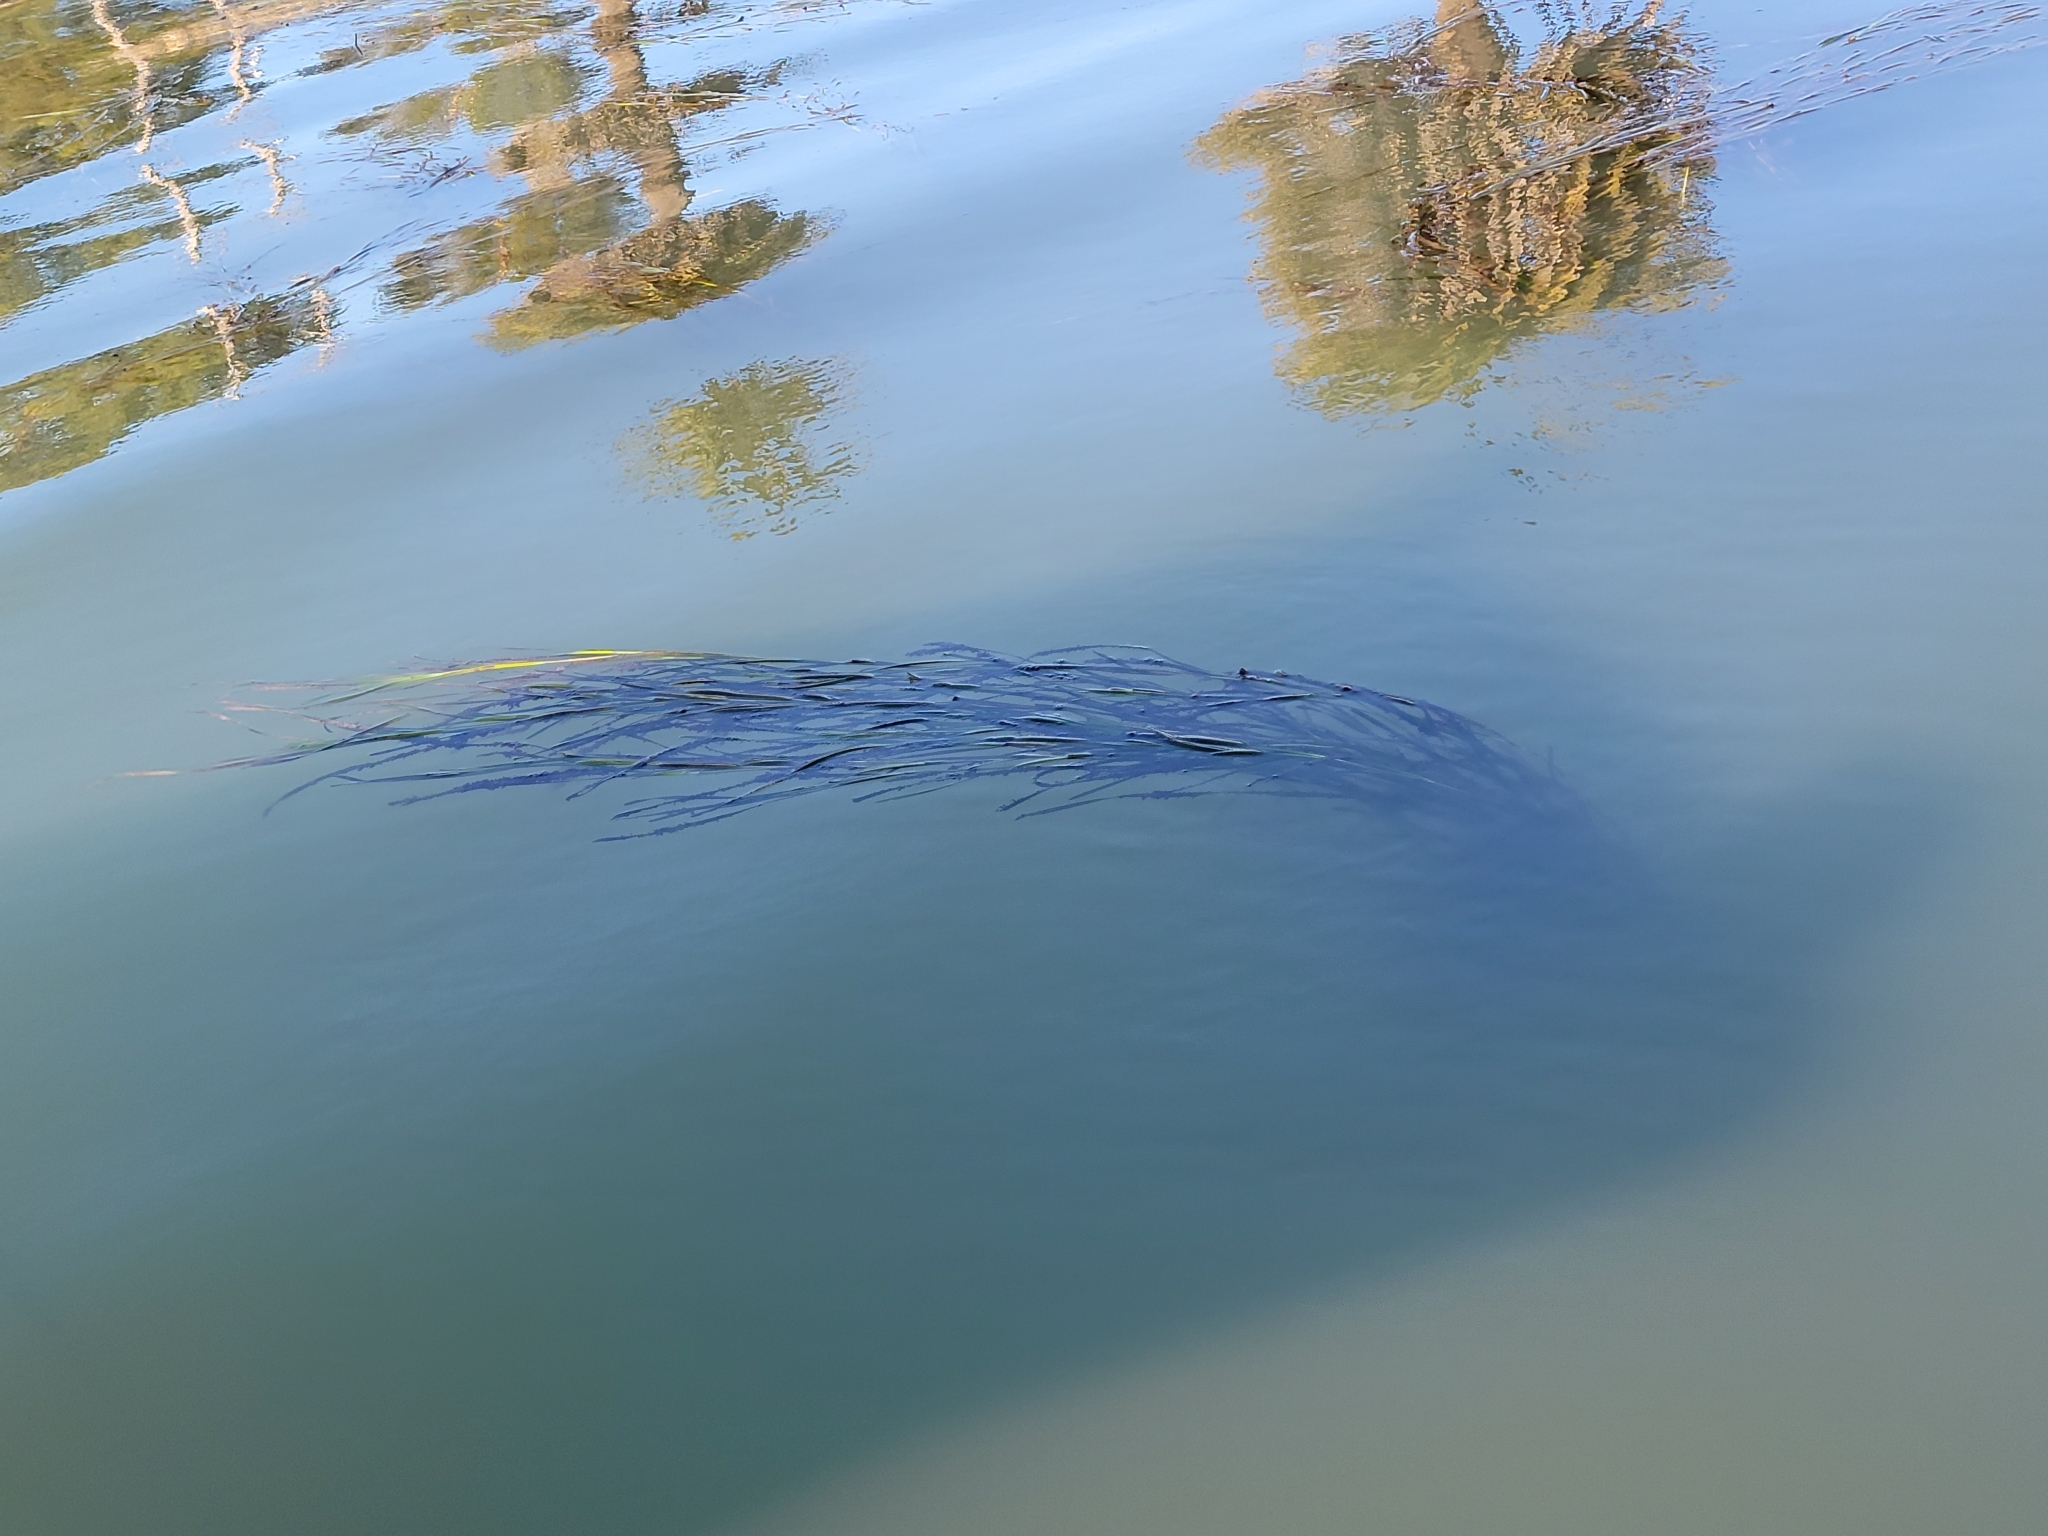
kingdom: Plantae
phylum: Tracheophyta
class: Liliopsida
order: Alismatales
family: Zosteraceae
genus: Zostera
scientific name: Zostera marina
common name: Eelgrass
